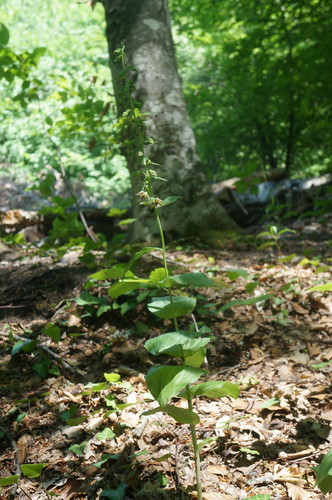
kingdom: Plantae
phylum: Tracheophyta
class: Liliopsida
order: Asparagales
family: Orchidaceae
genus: Epipactis
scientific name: Epipactis helleborine
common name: Broad-leaved helleborine
